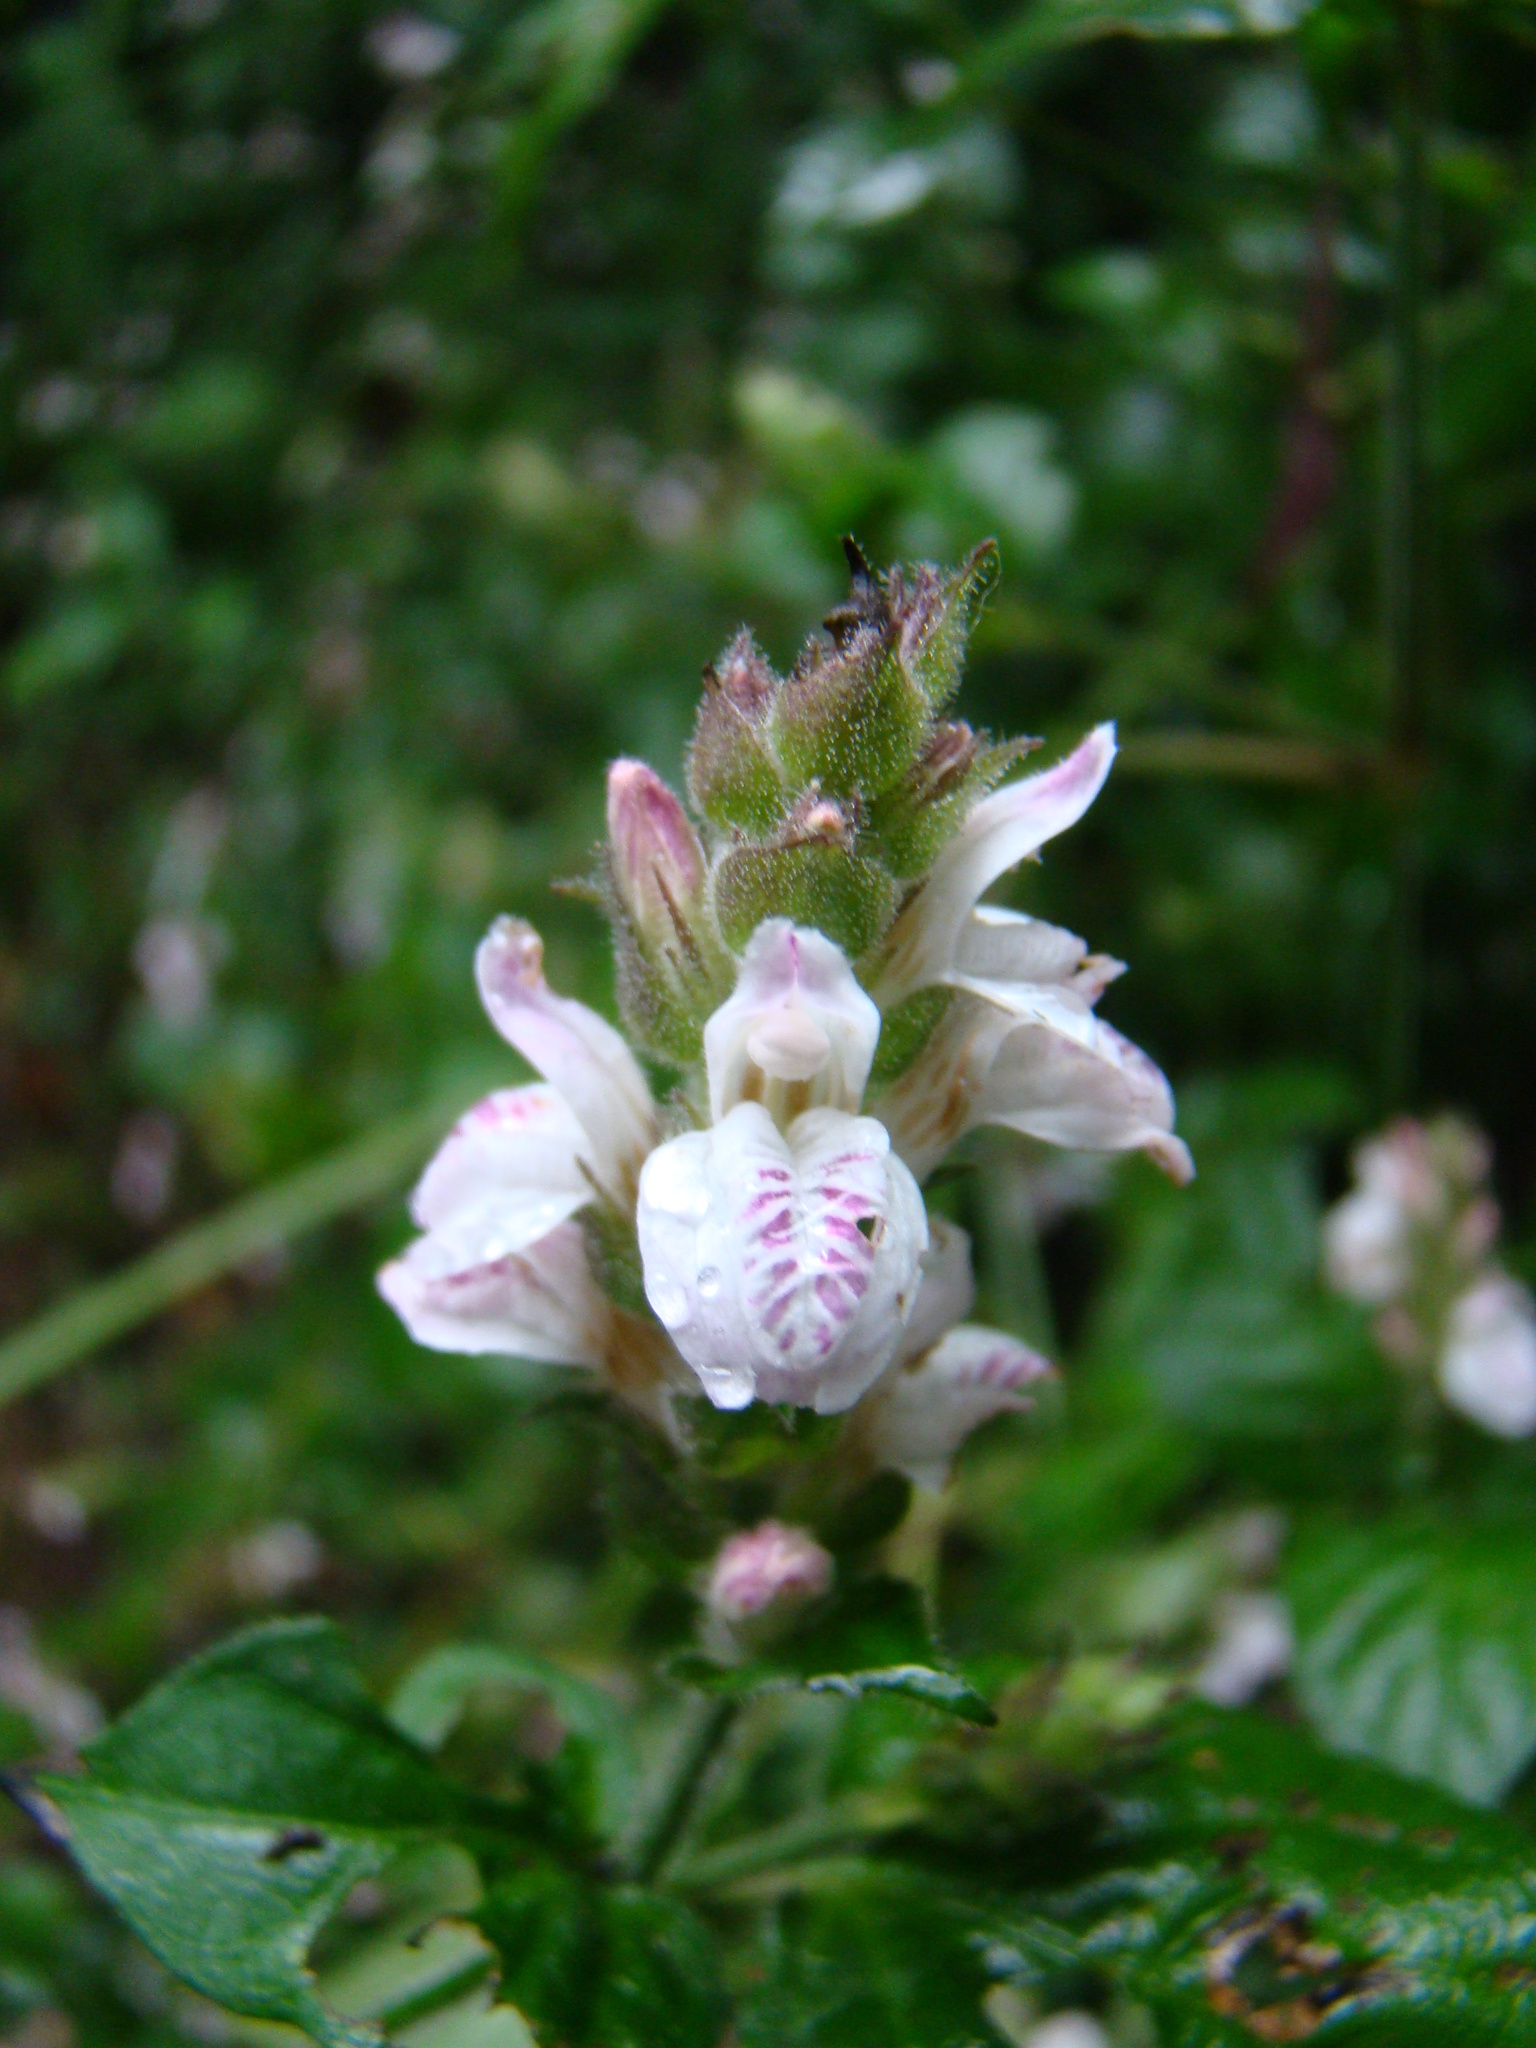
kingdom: Plantae
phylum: Tracheophyta
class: Magnoliopsida
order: Lamiales
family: Acanthaceae
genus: Isoglossa
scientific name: Isoglossa substrobilina
